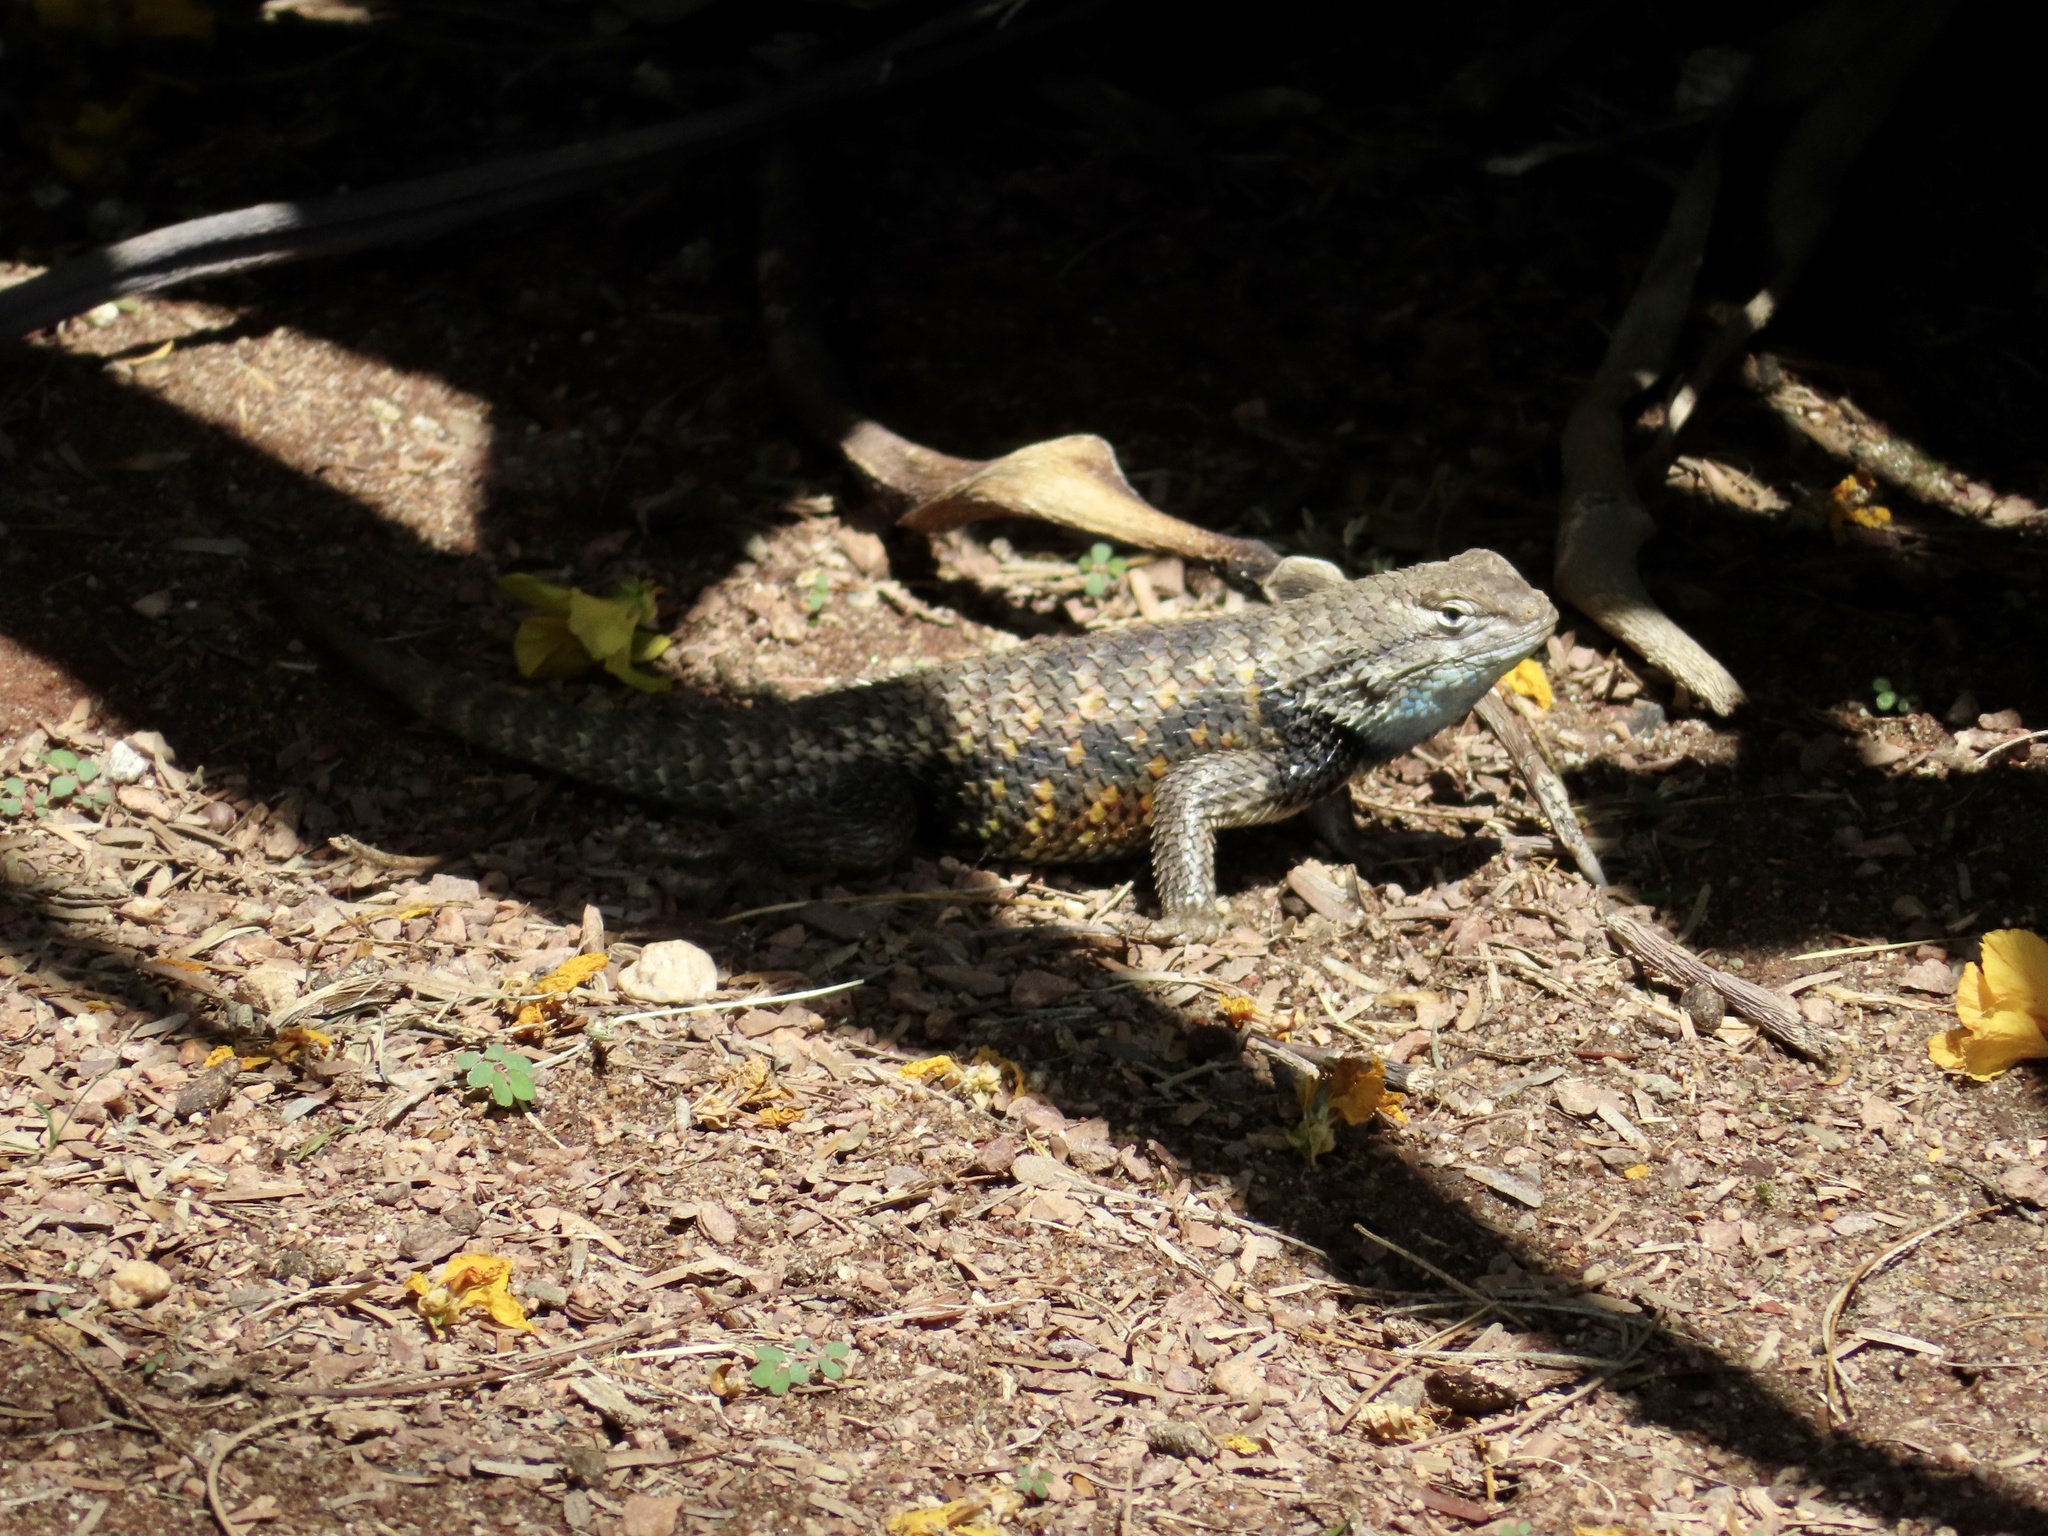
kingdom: Animalia
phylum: Chordata
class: Squamata
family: Phrynosomatidae
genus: Sceloporus
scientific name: Sceloporus magister
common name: Desert spiny lizard
